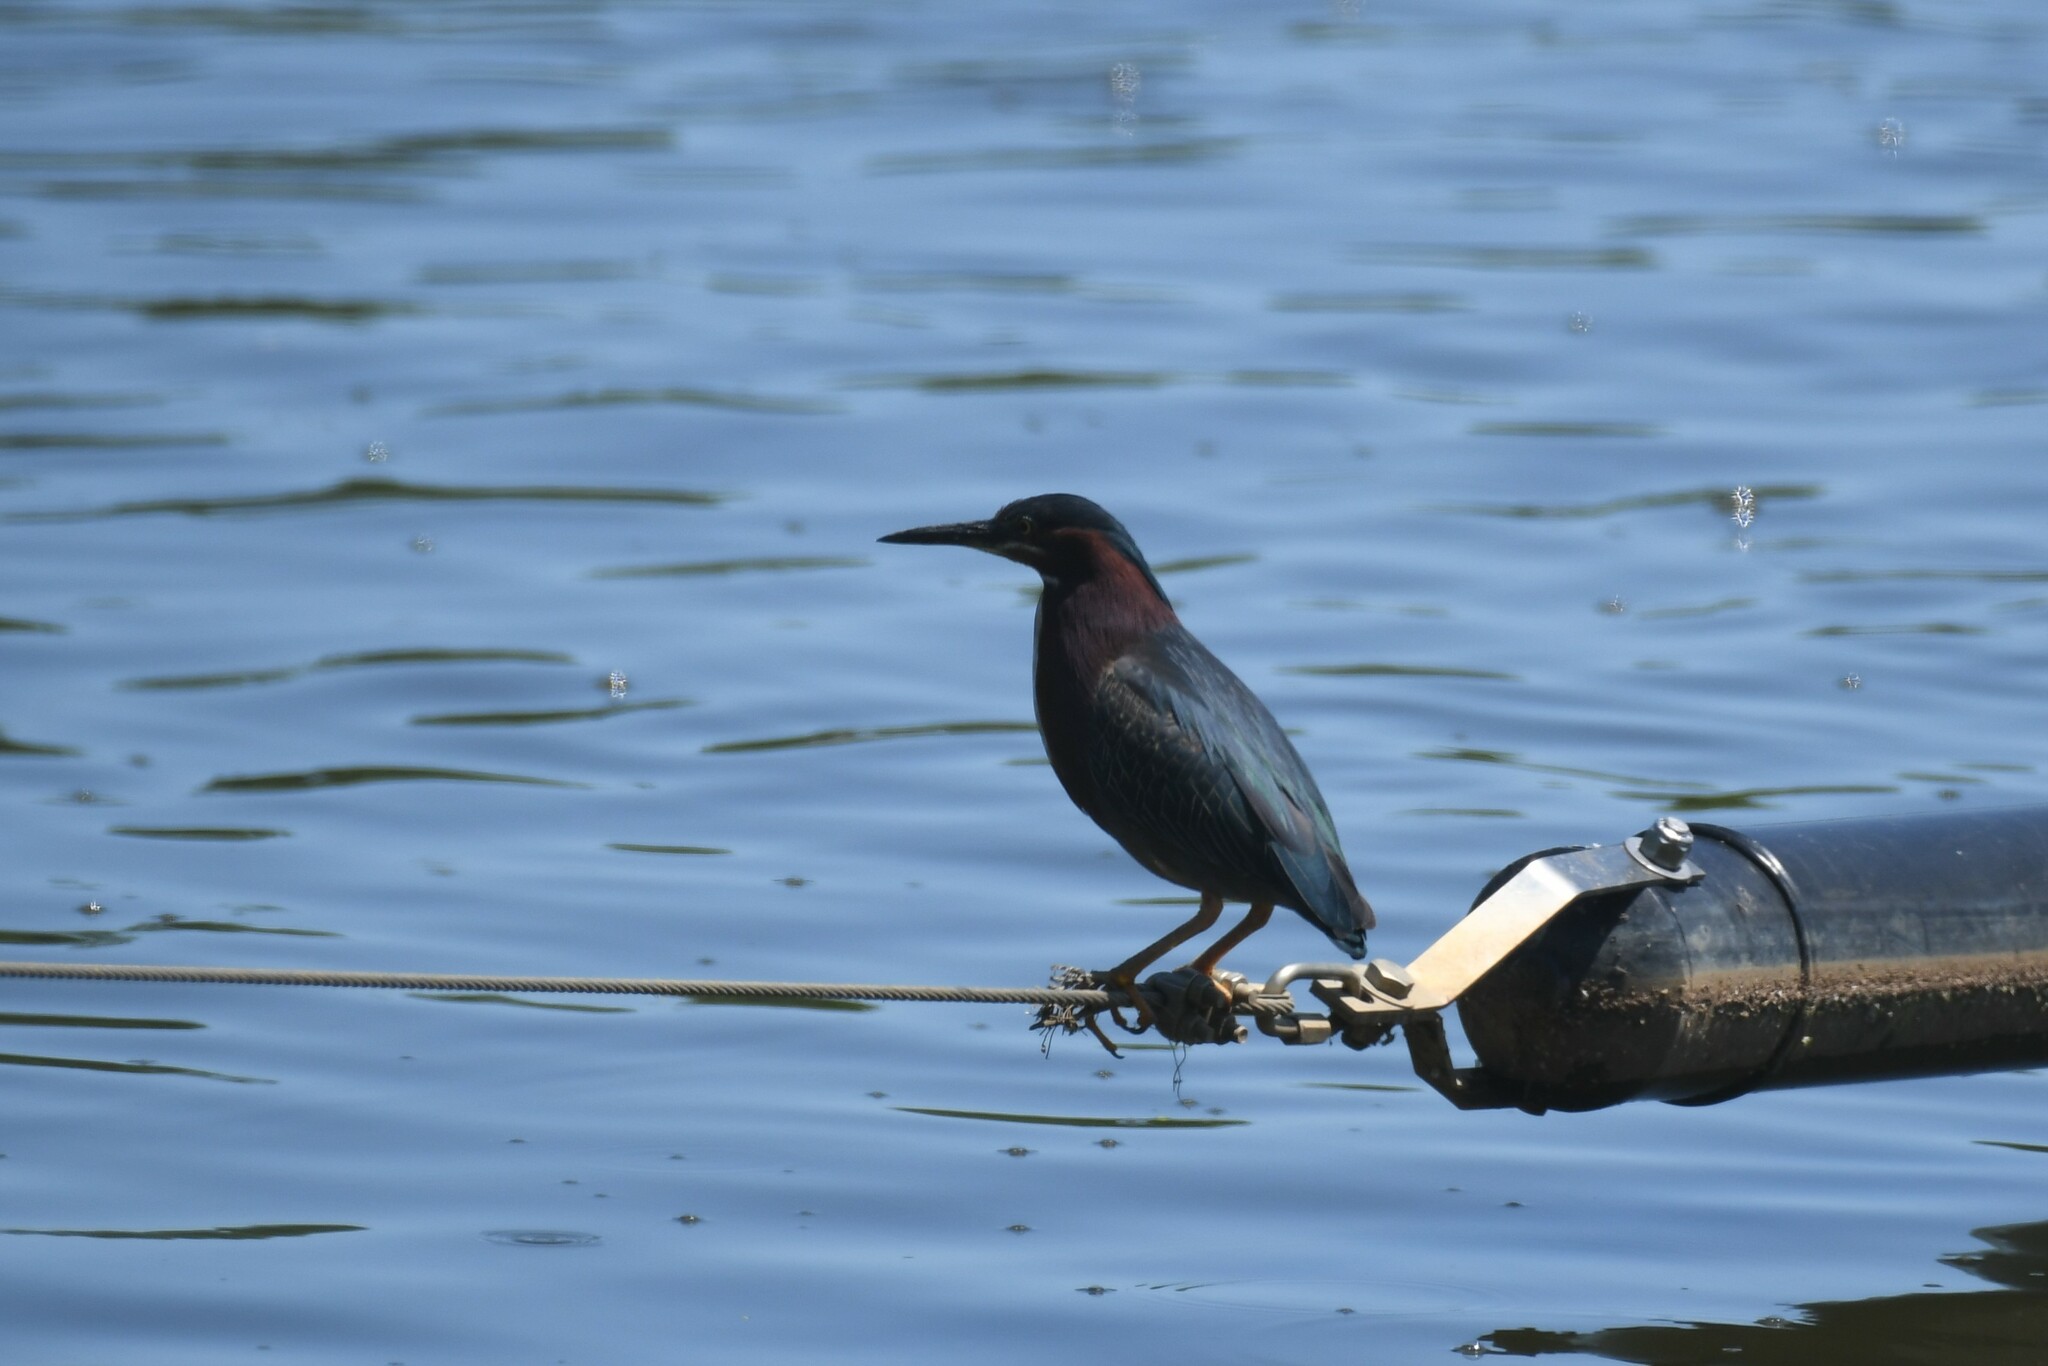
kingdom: Animalia
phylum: Chordata
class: Aves
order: Pelecaniformes
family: Ardeidae
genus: Butorides
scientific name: Butorides virescens
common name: Green heron
